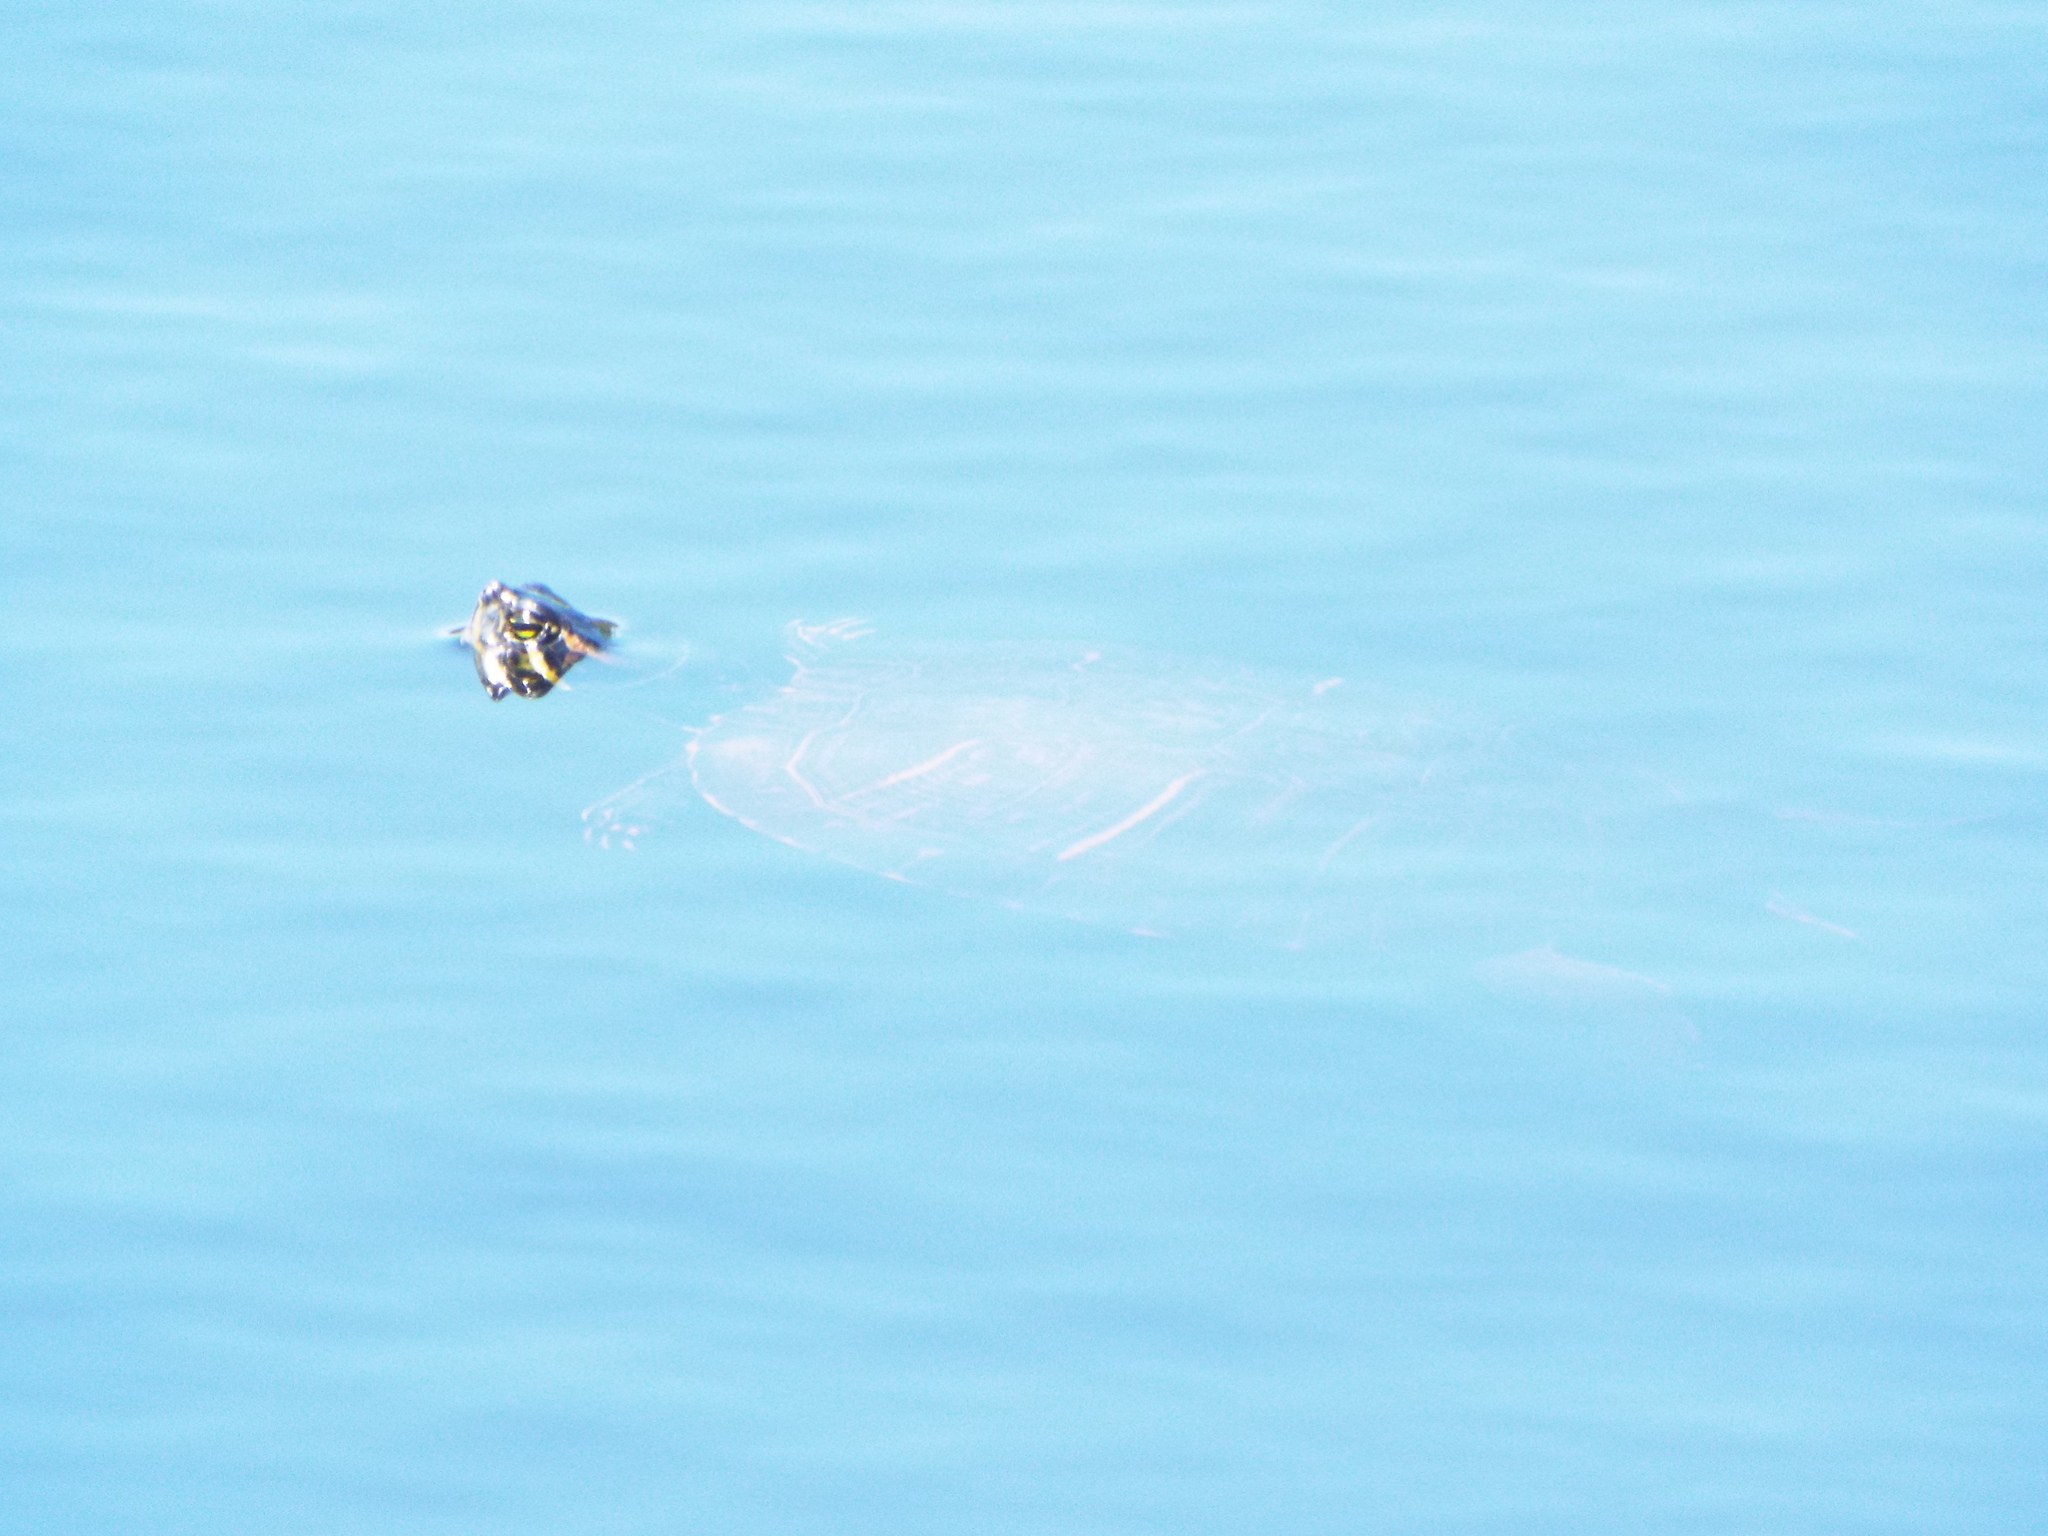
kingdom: Animalia
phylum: Chordata
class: Testudines
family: Emydidae
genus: Trachemys
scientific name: Trachemys scripta
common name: Slider
